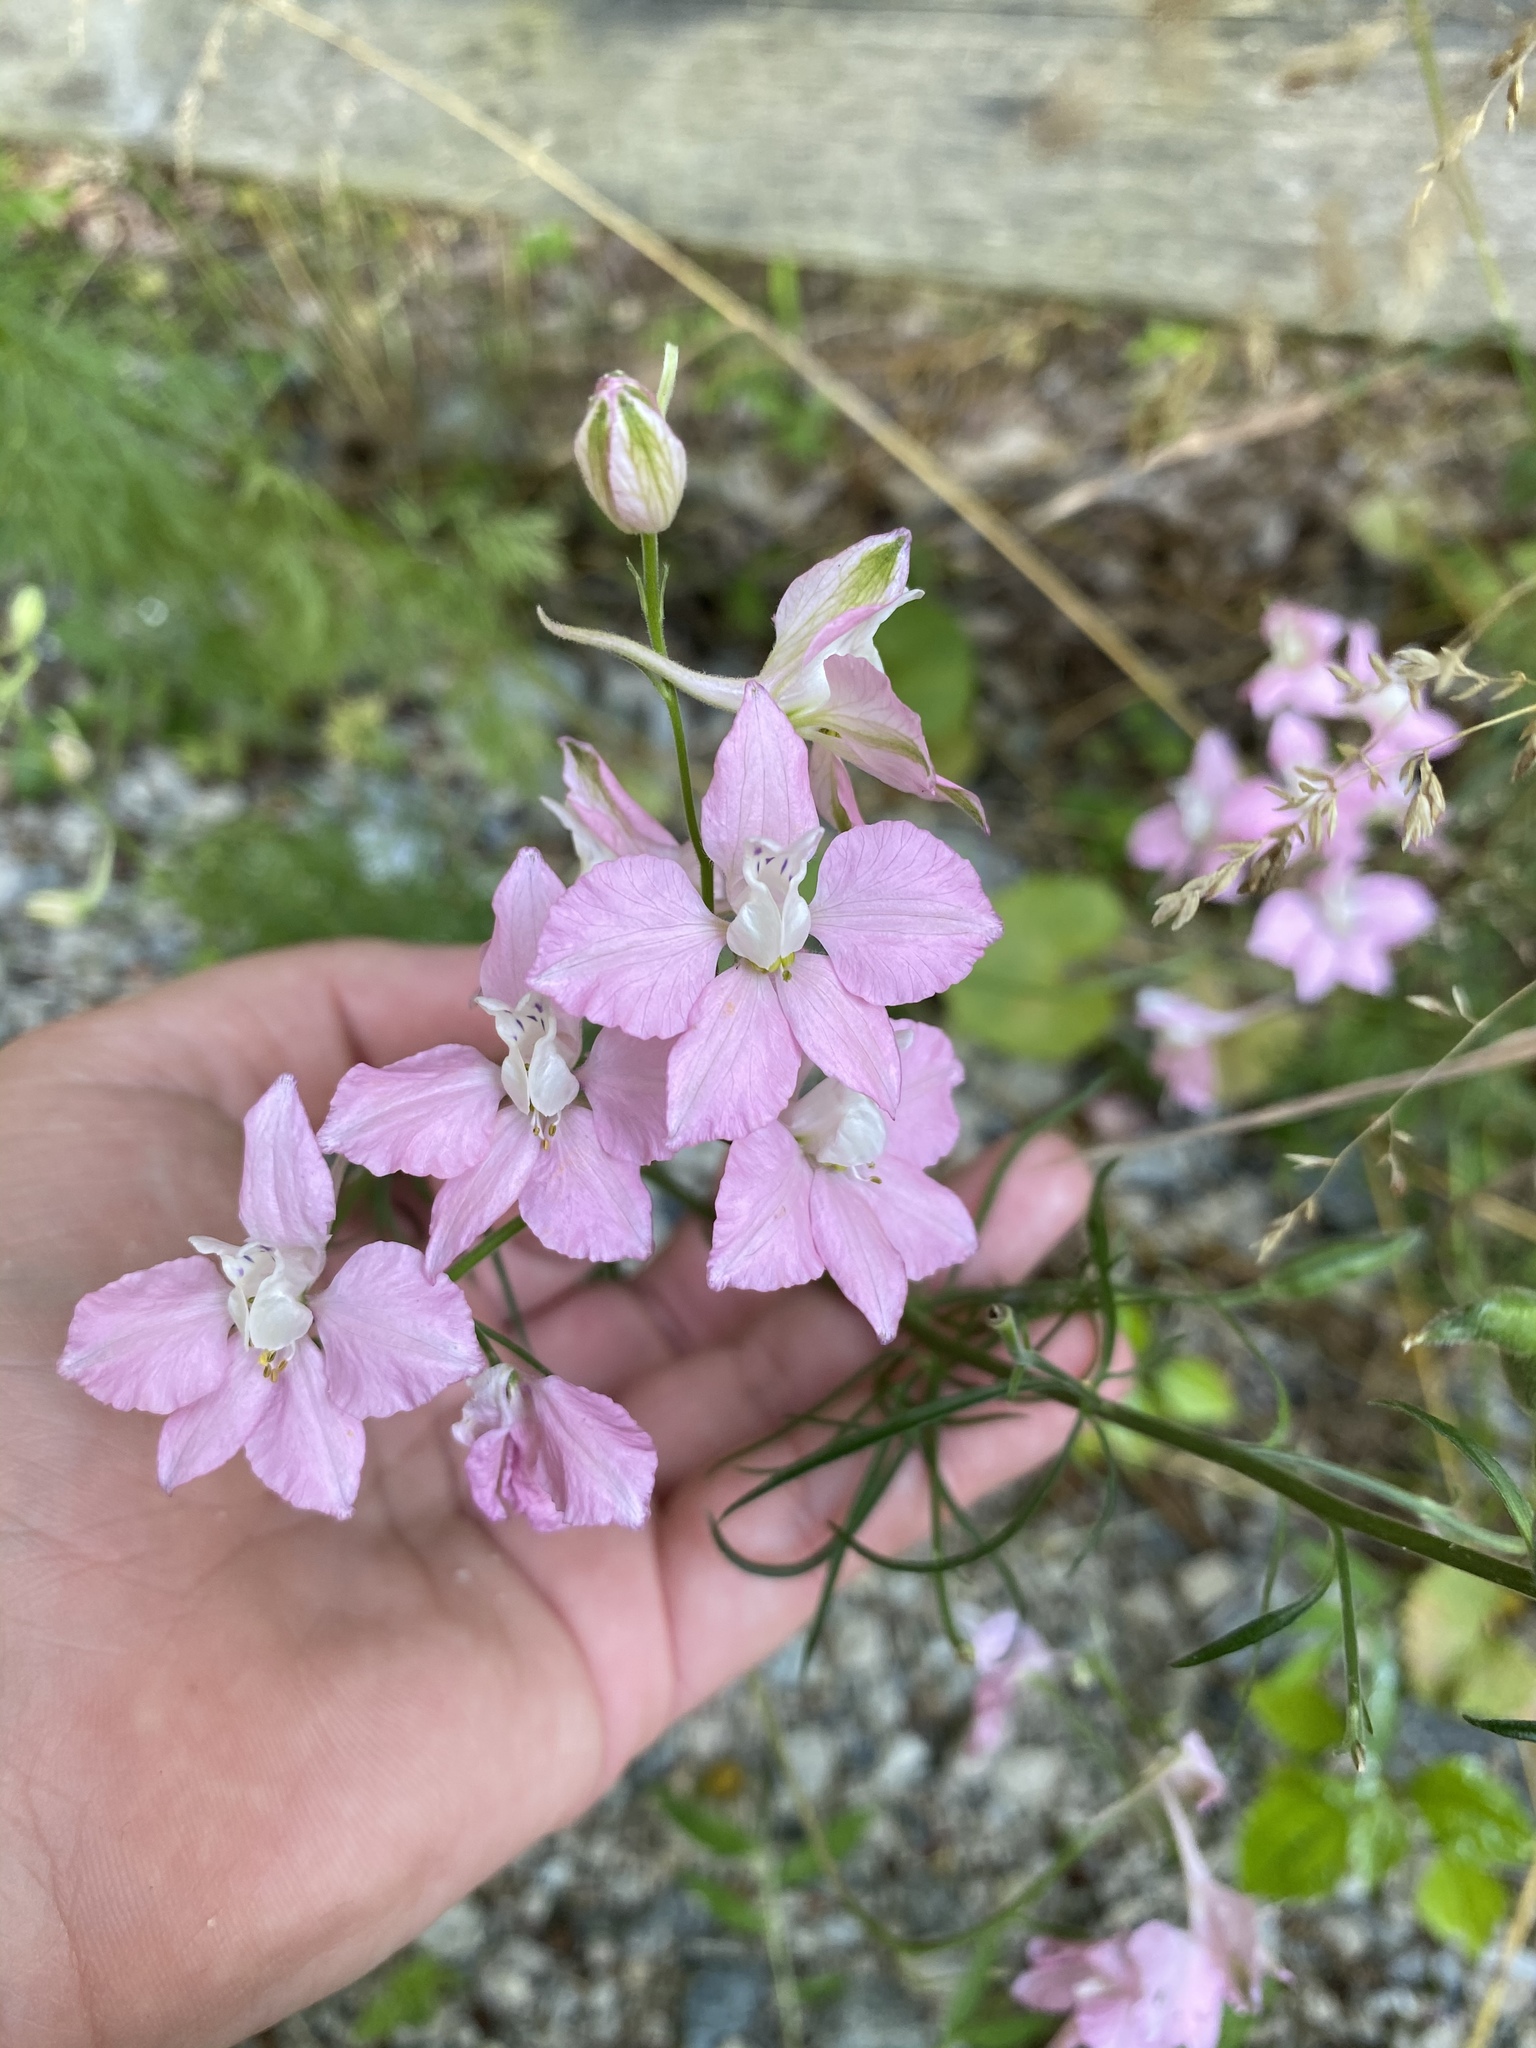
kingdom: Plantae
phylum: Tracheophyta
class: Magnoliopsida
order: Ranunculales
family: Ranunculaceae
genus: Delphinium
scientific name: Delphinium ajacis
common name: Doubtful knight's-spur
